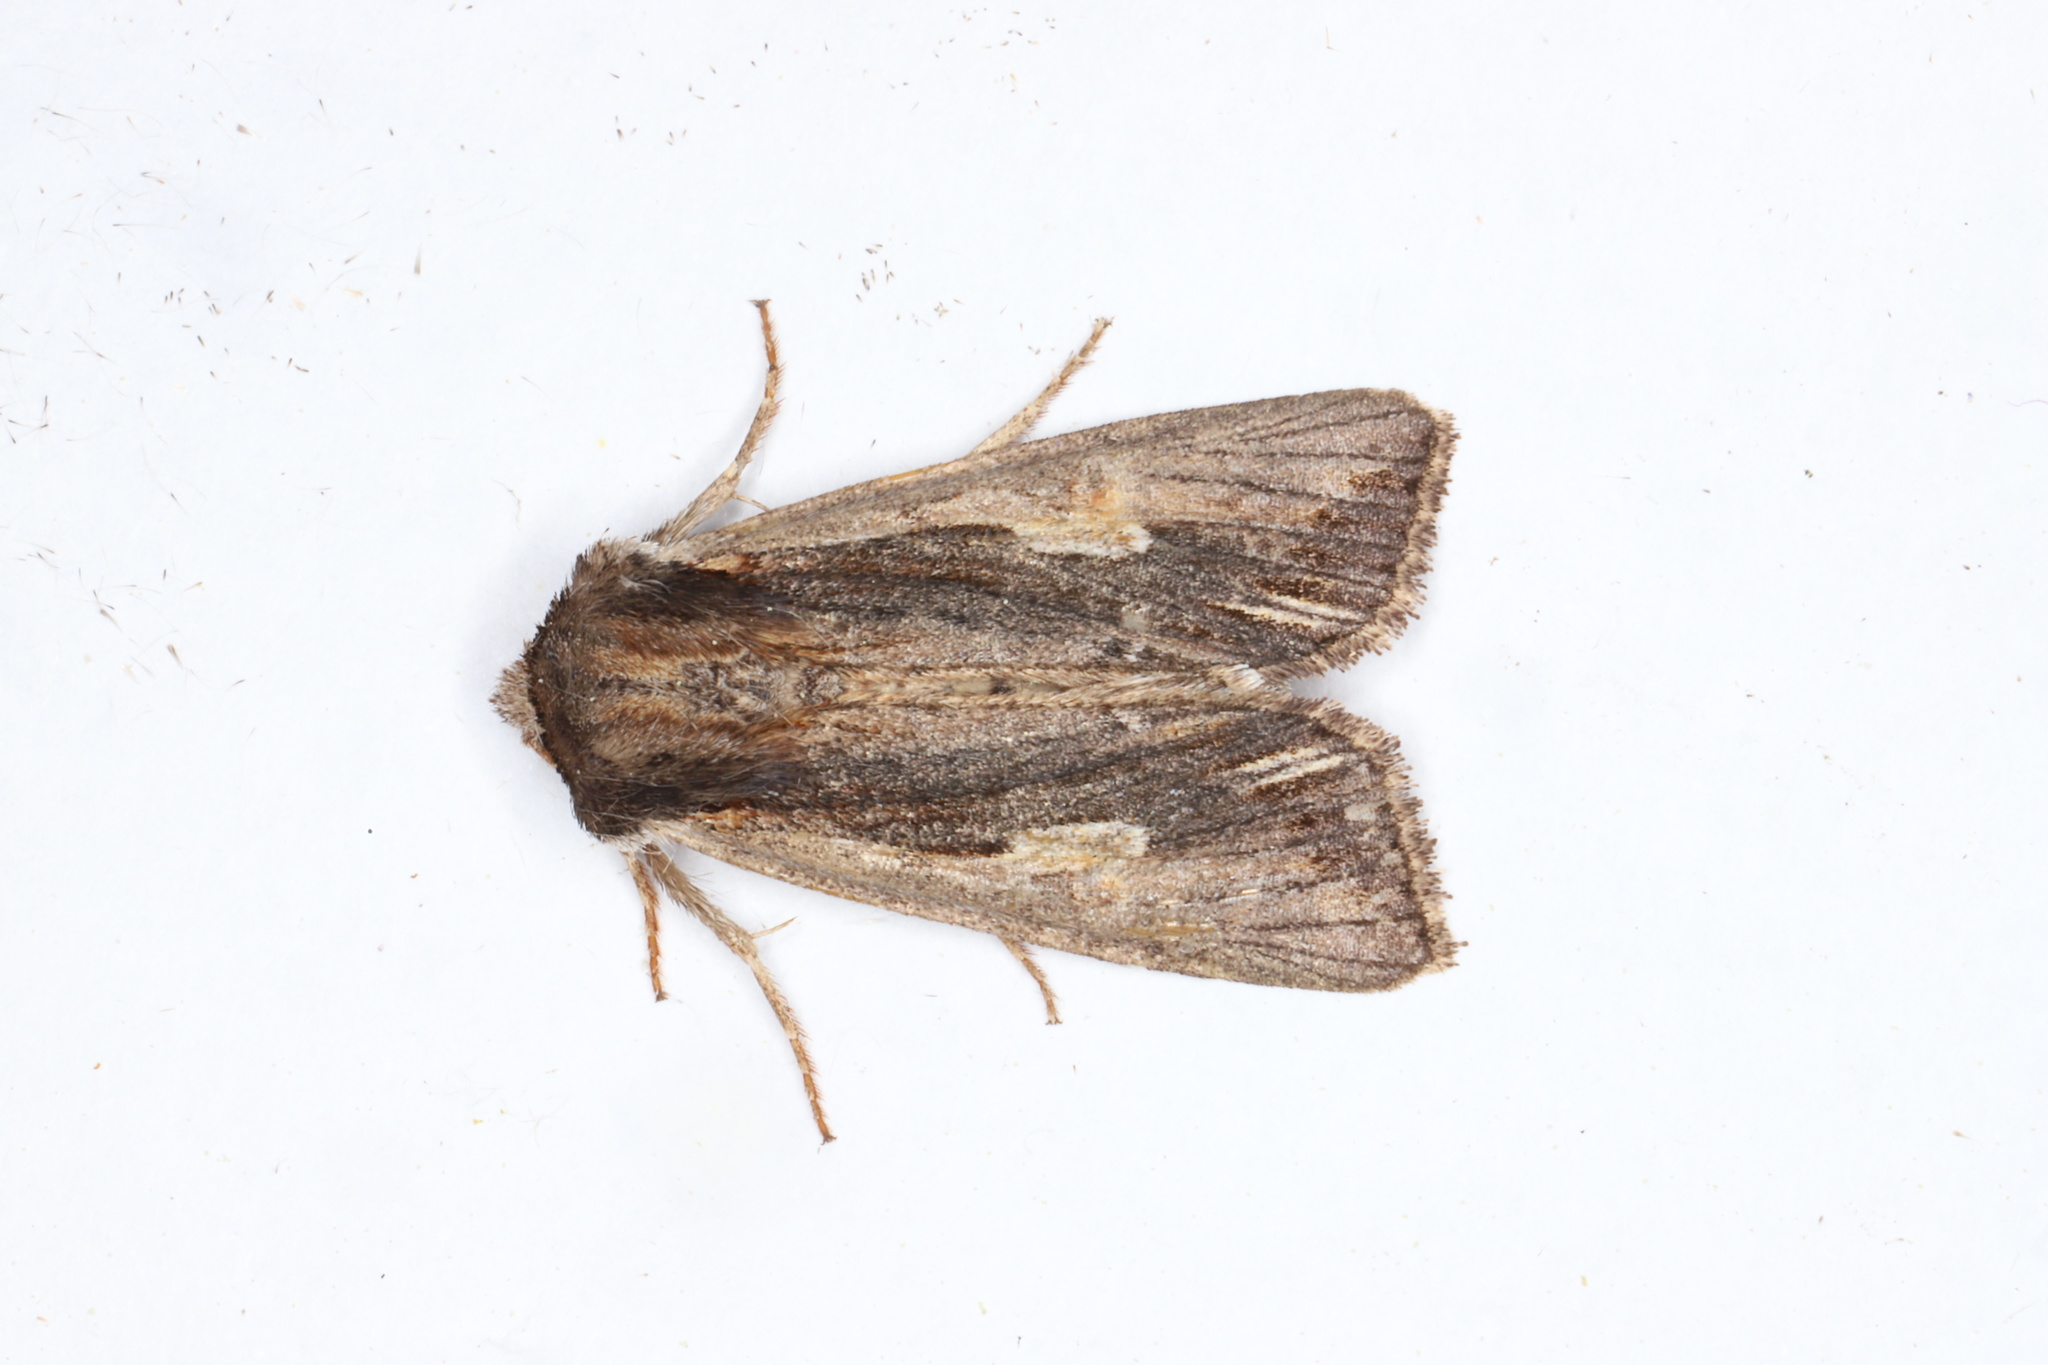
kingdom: Animalia
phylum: Arthropoda
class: Insecta
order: Lepidoptera
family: Noctuidae
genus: Achatia
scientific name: Achatia evicta
